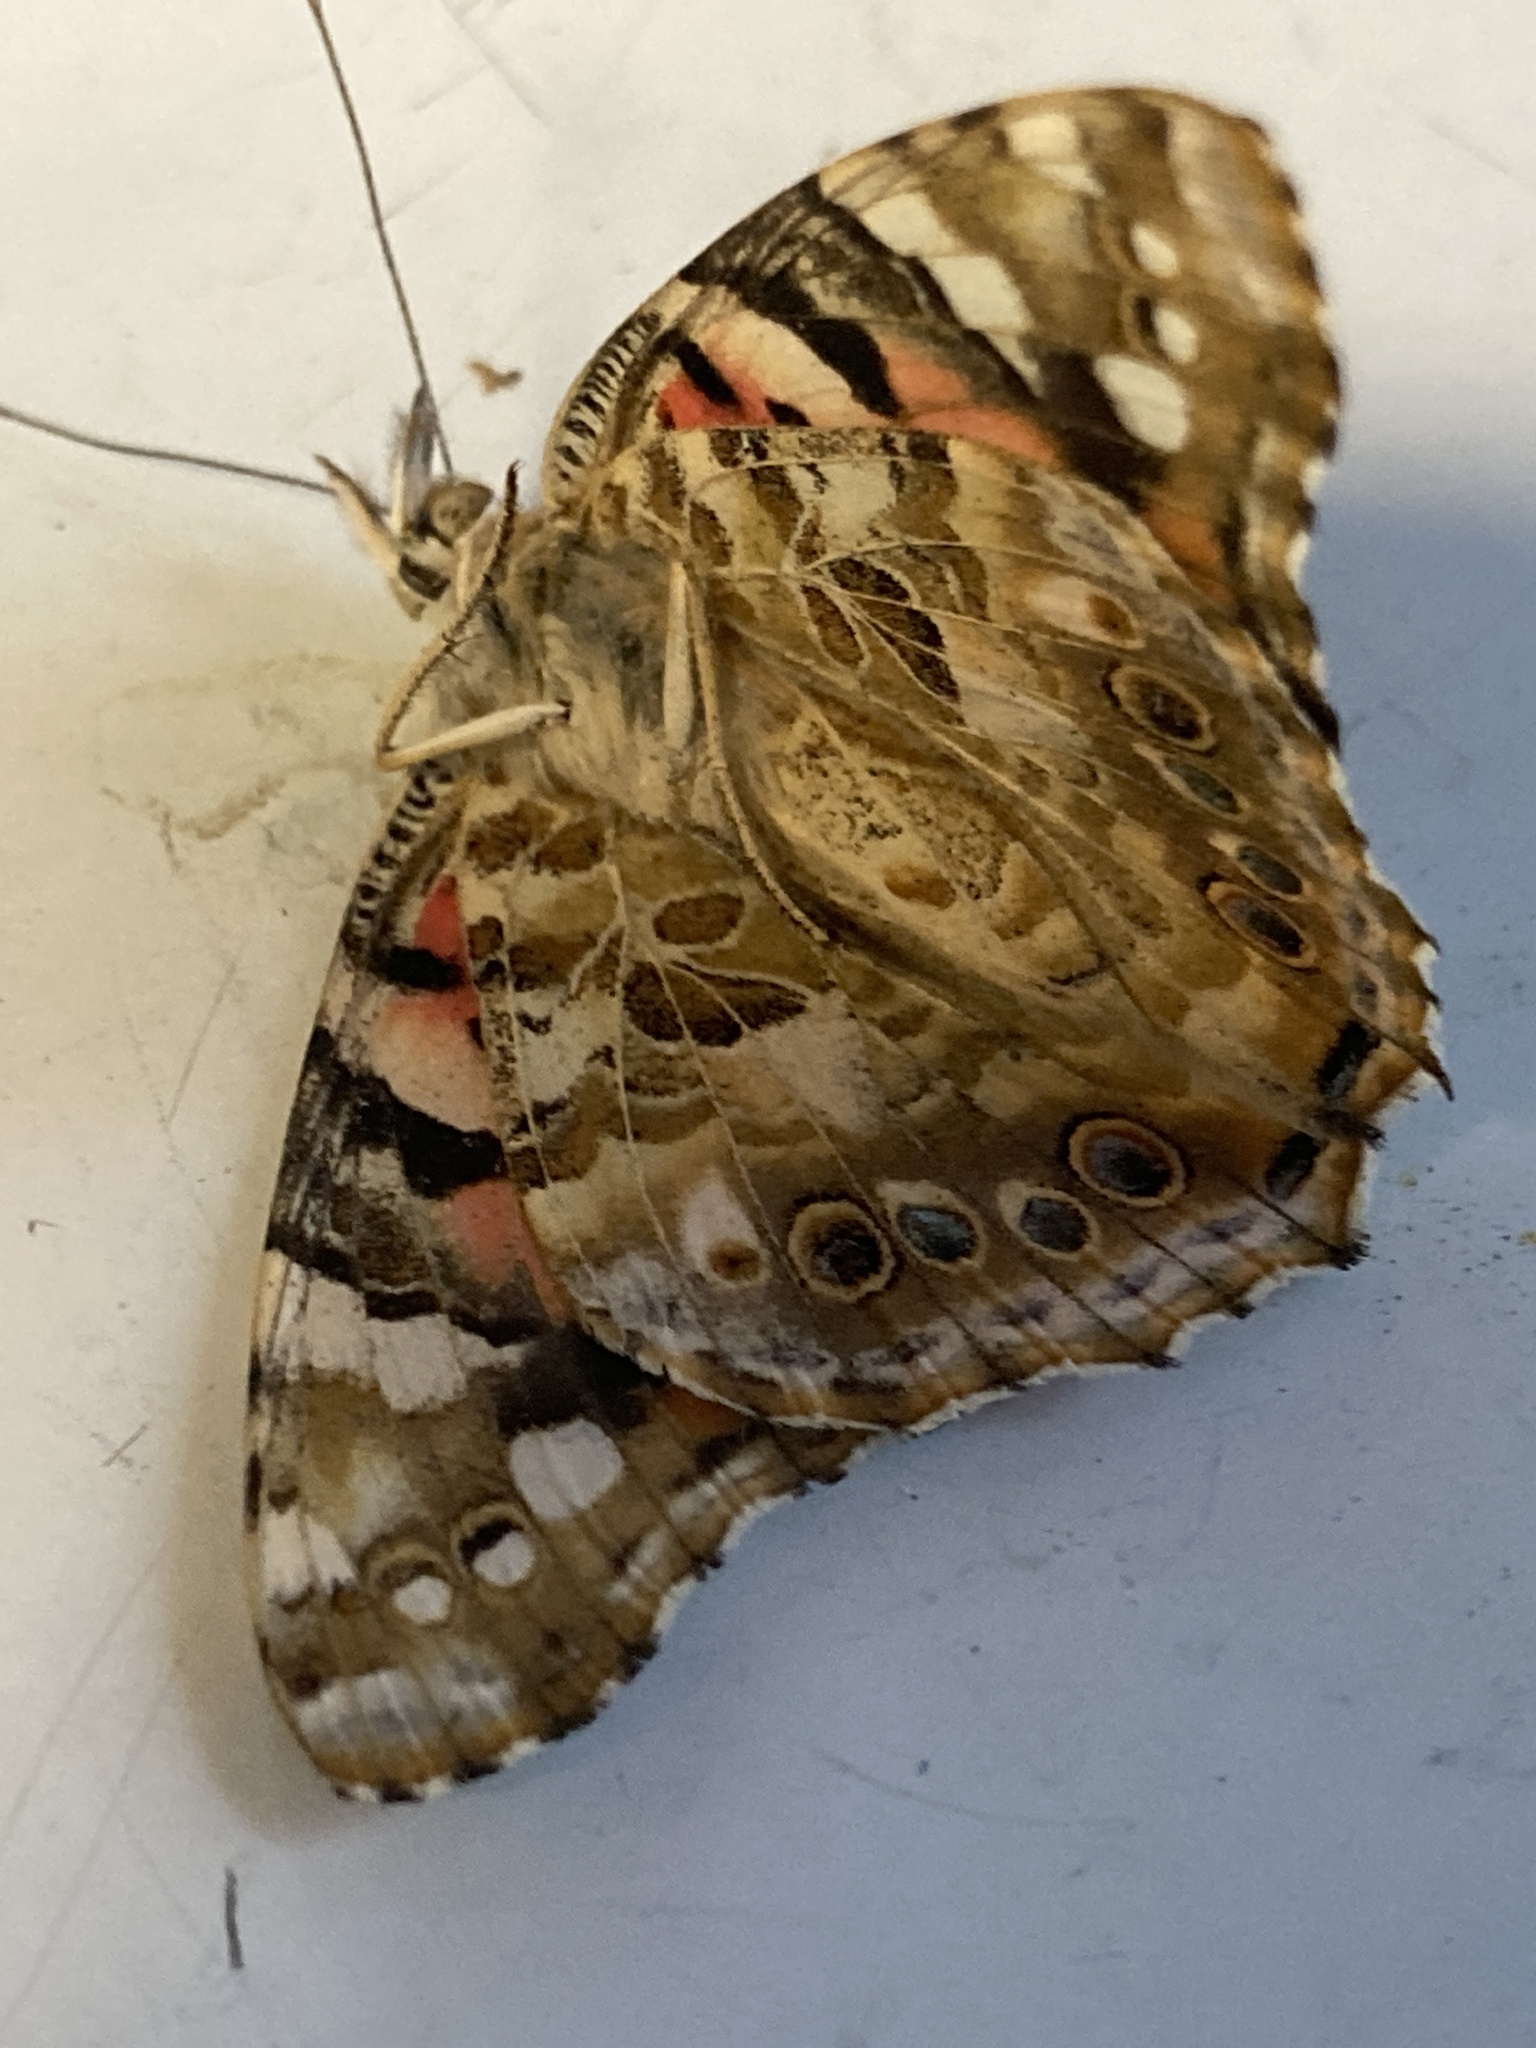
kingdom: Animalia
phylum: Arthropoda
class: Insecta
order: Lepidoptera
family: Nymphalidae
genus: Vanessa
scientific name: Vanessa cardui
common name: Painted lady
